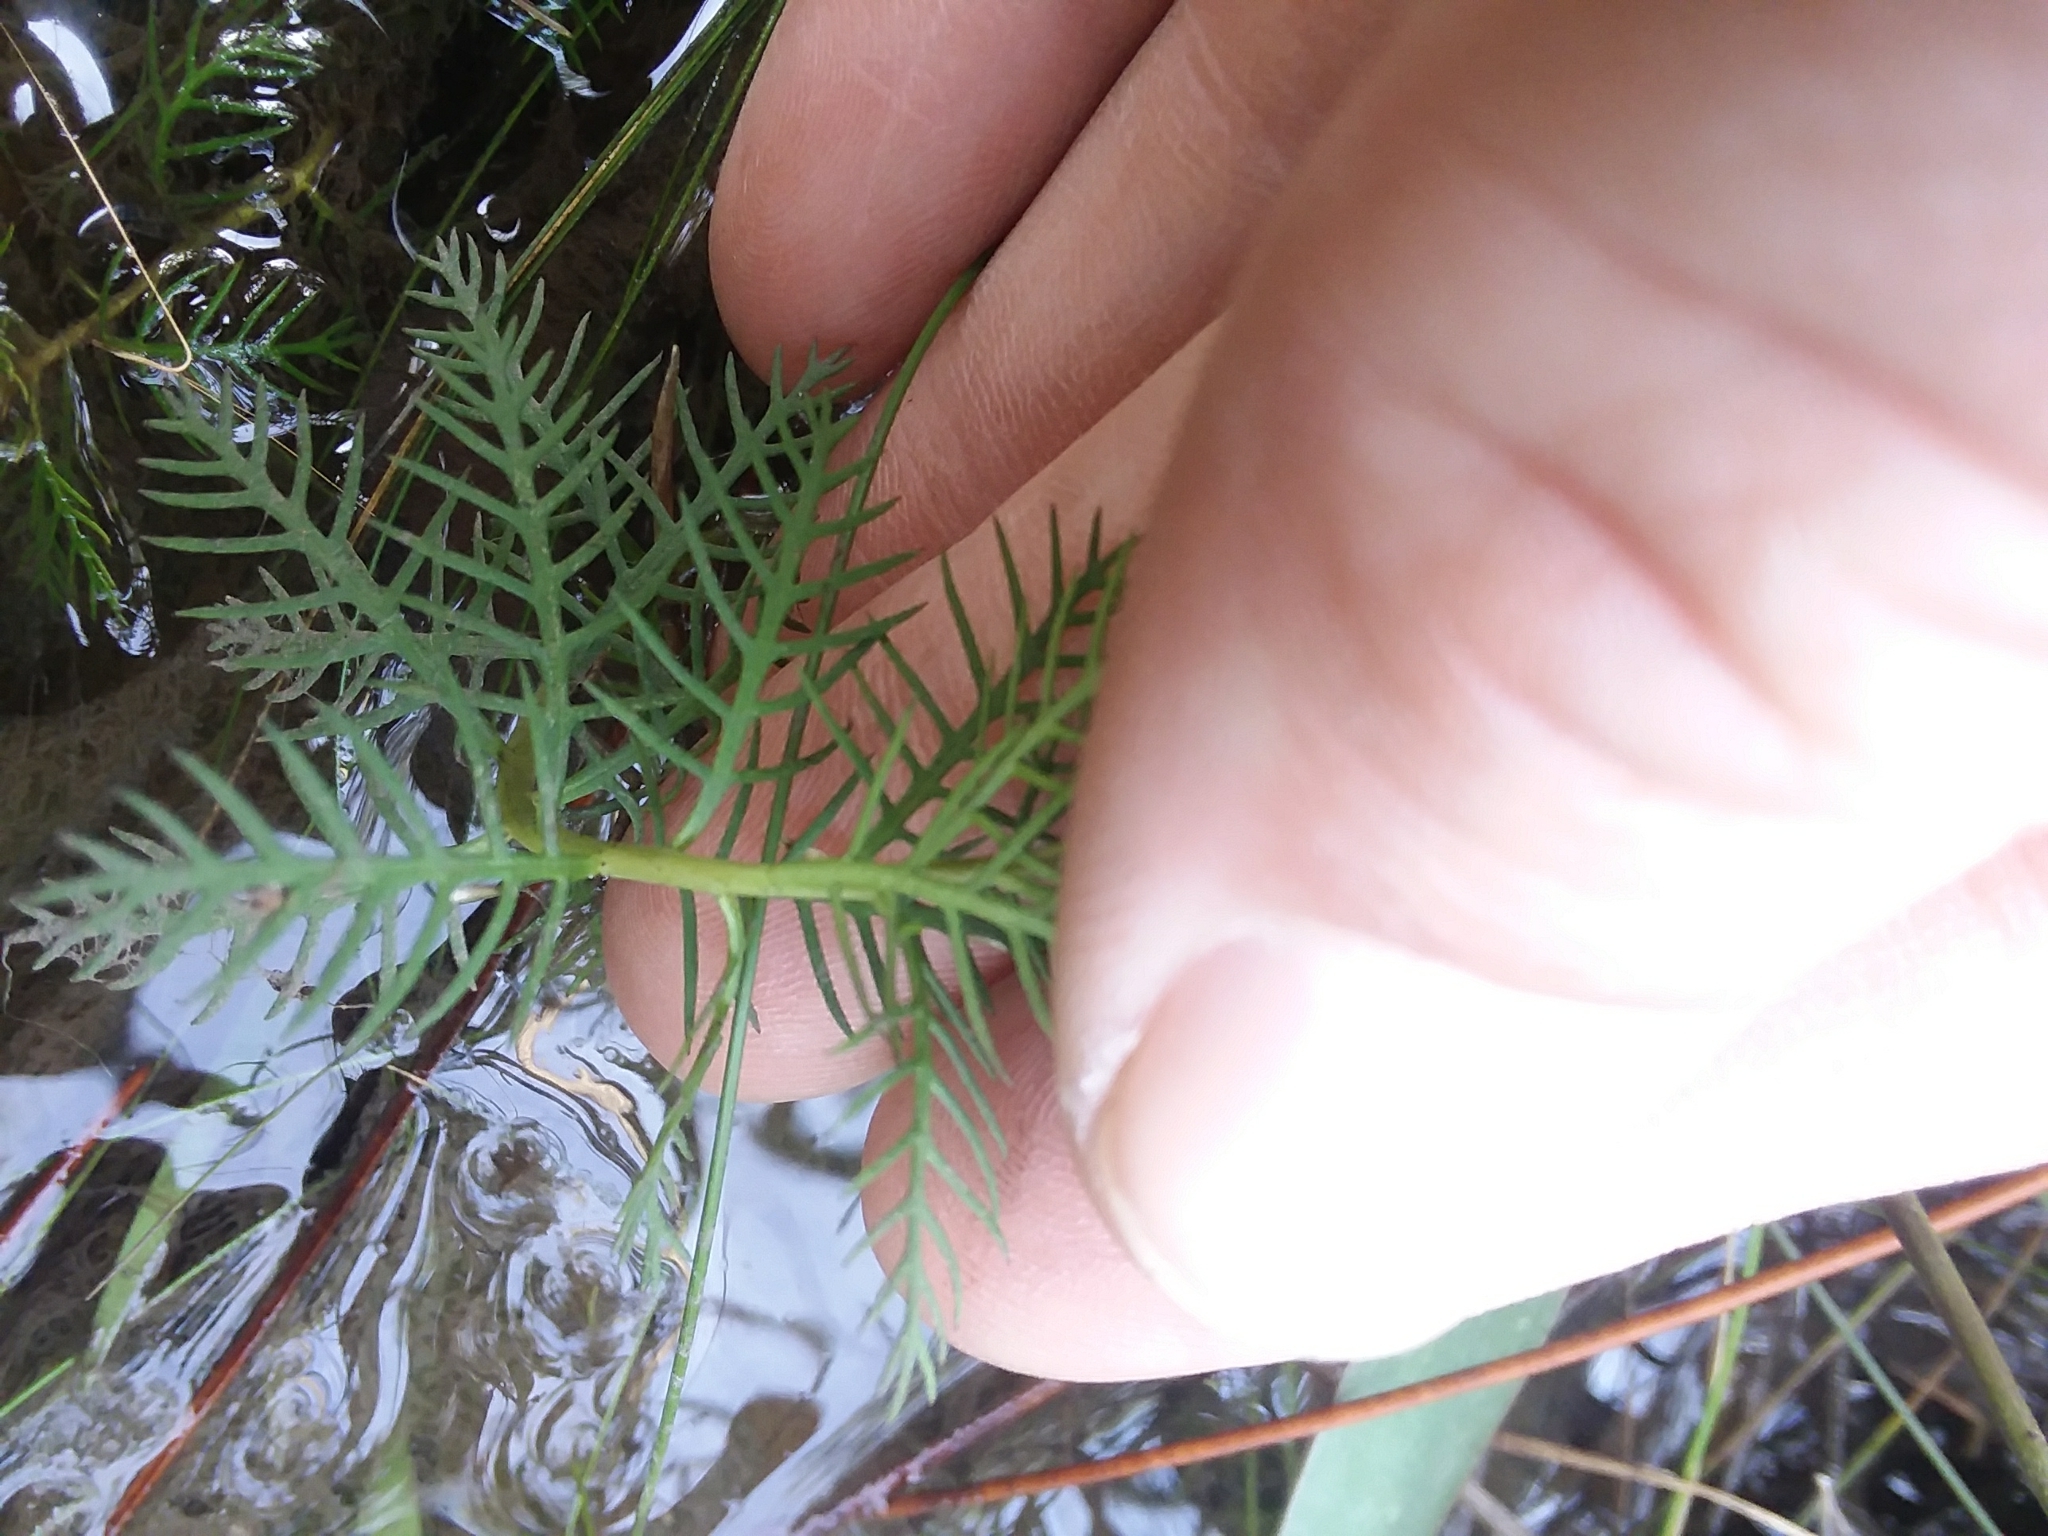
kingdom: Plantae
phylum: Tracheophyta
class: Magnoliopsida
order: Saxifragales
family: Haloragaceae
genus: Proserpinaca
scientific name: Proserpinaca pectinata
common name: Comb-leaved mermaidweed
